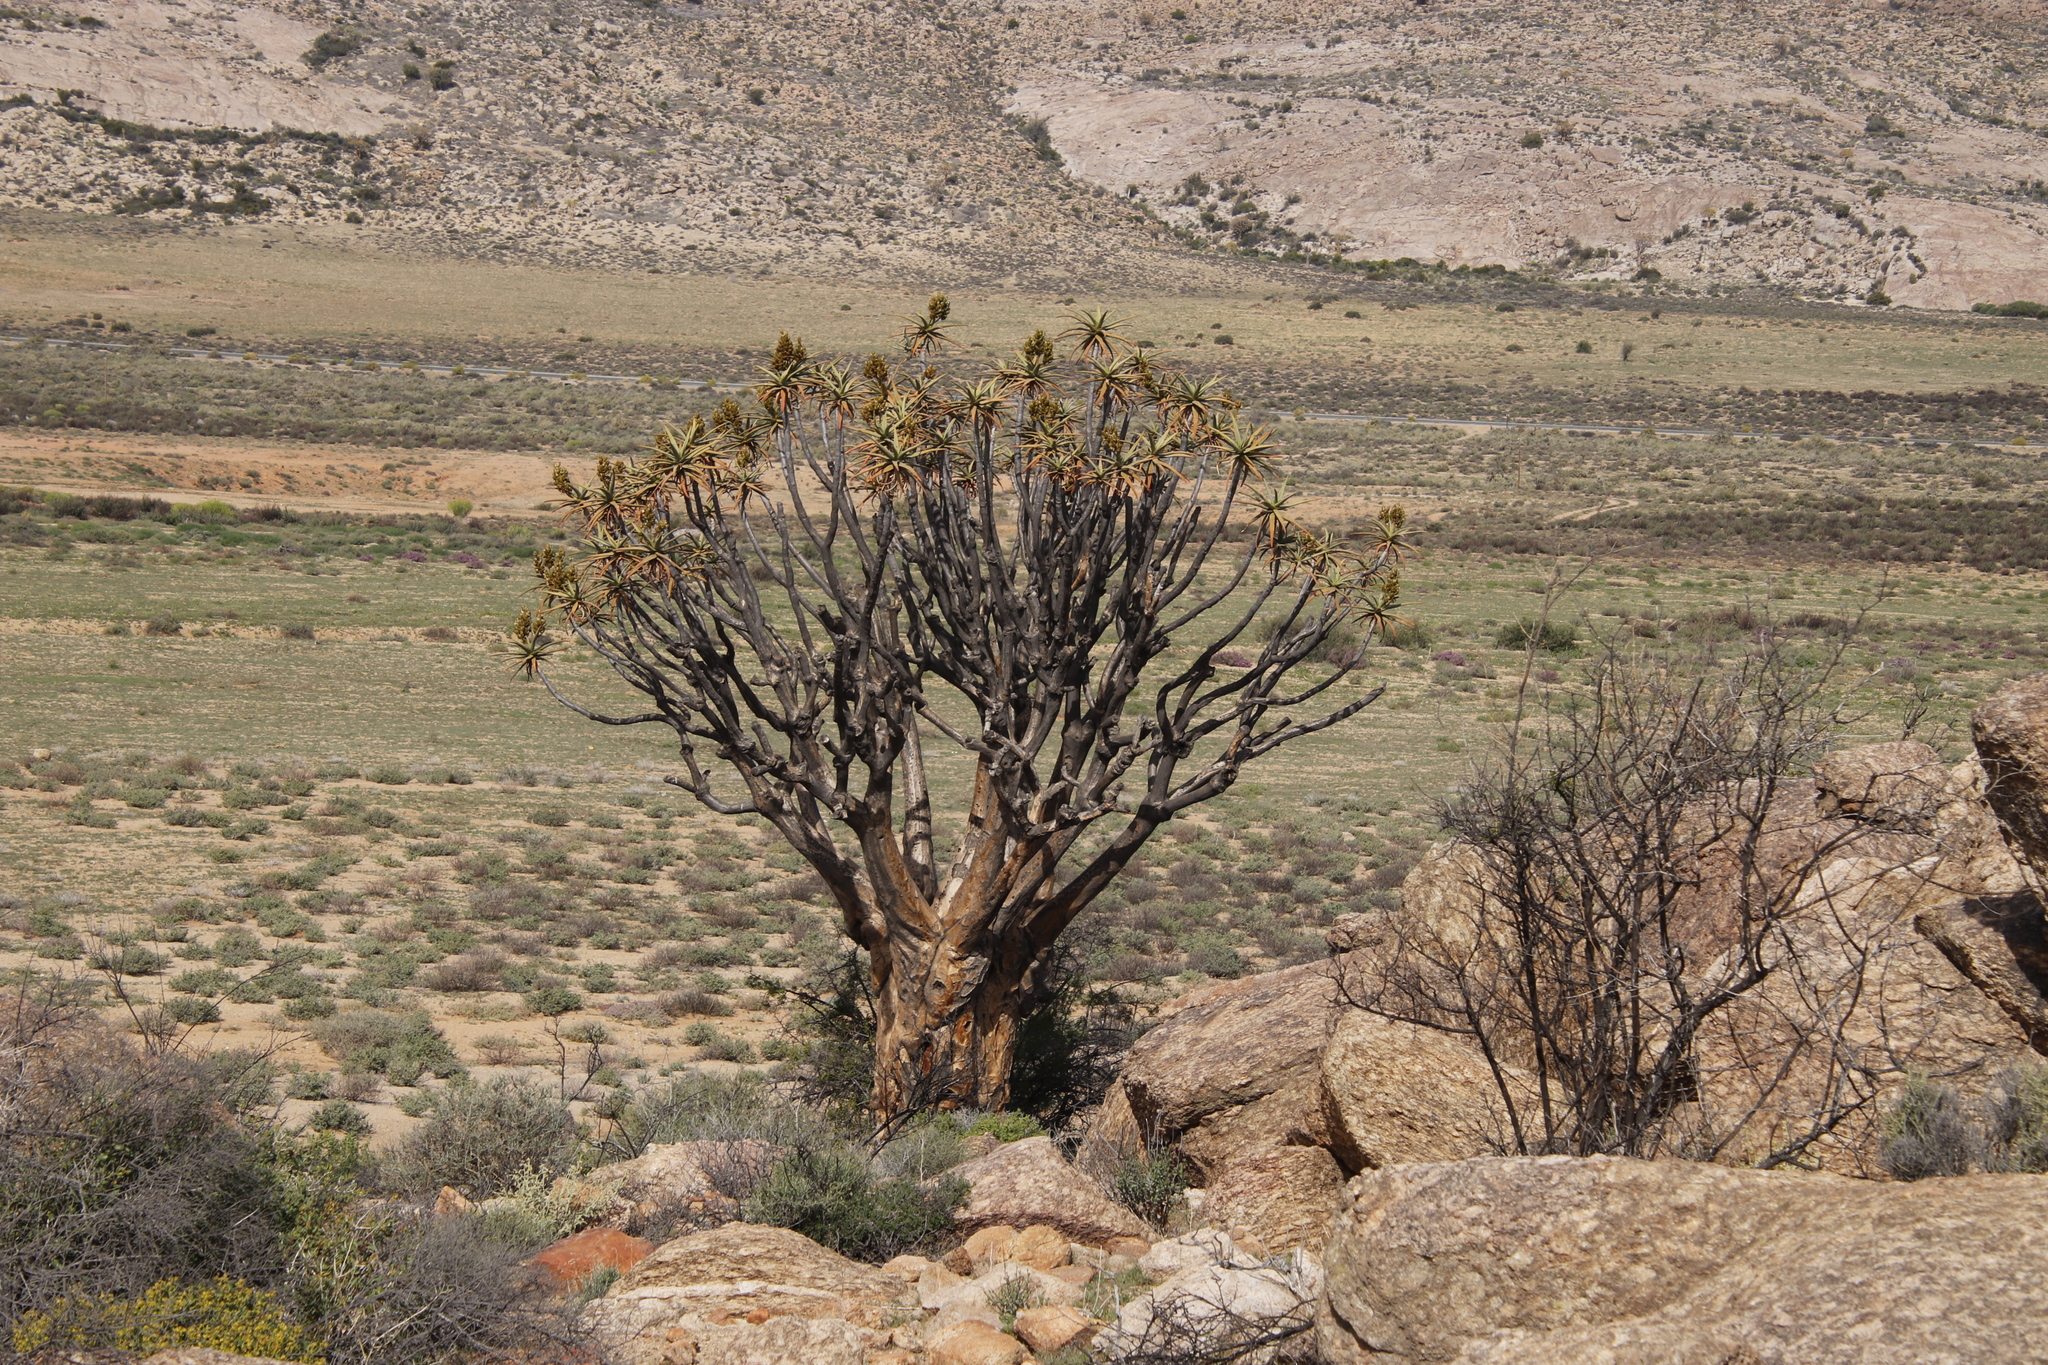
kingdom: Plantae
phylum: Tracheophyta
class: Liliopsida
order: Asparagales
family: Asphodelaceae
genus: Aloidendron
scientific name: Aloidendron dichotomum
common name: Quiver tree
